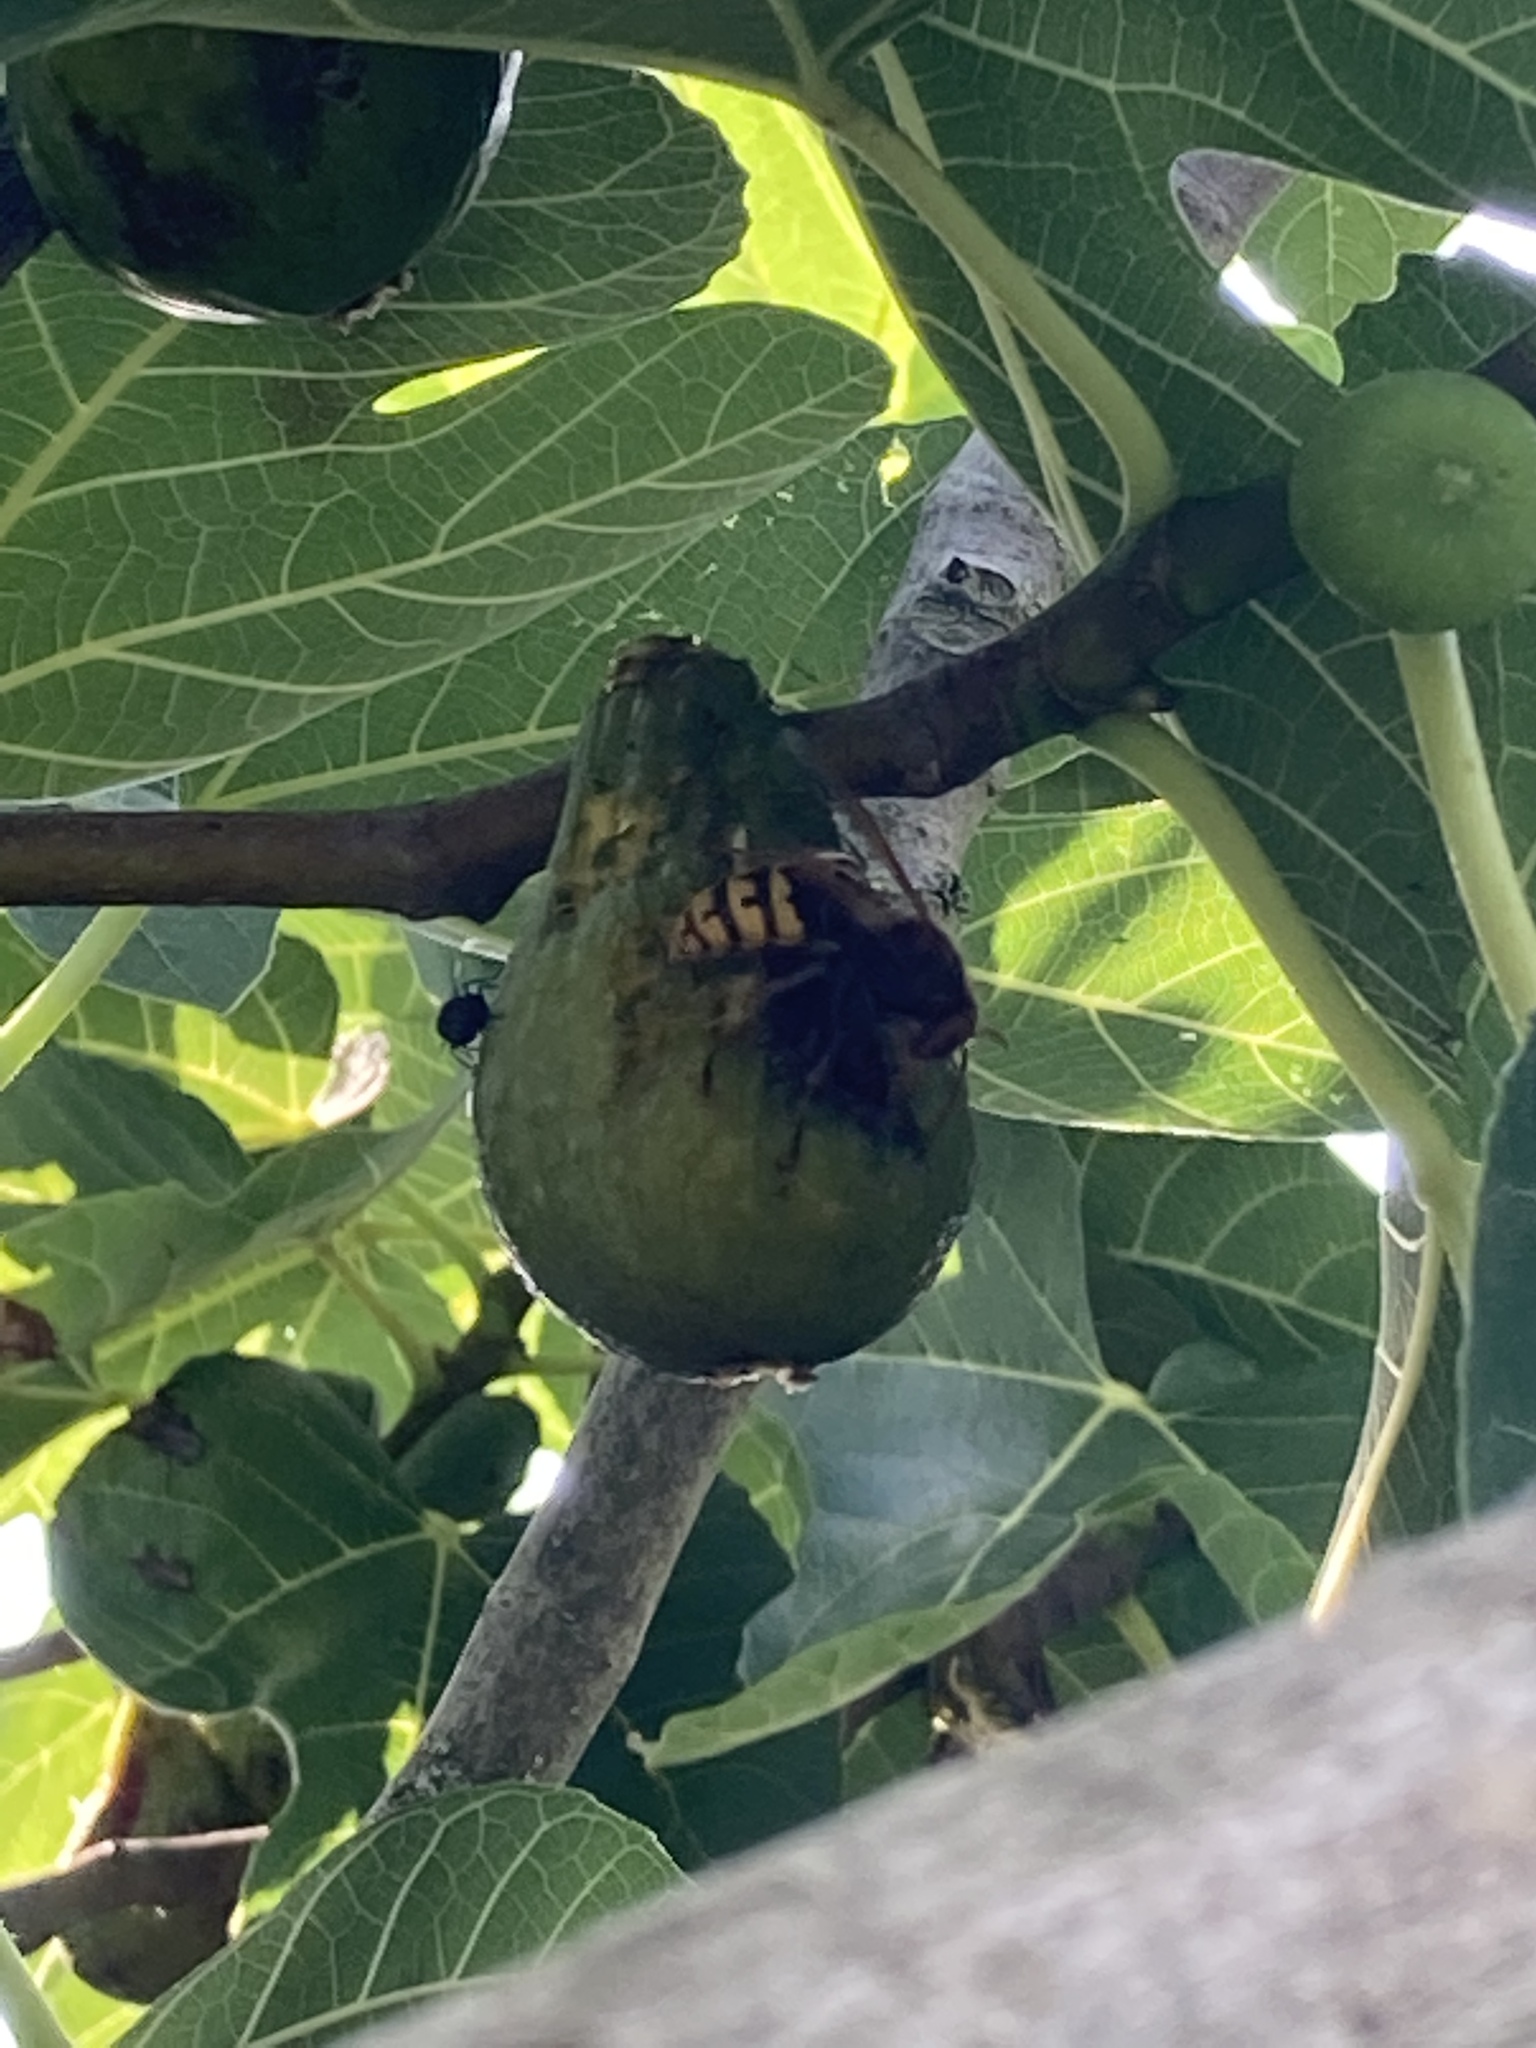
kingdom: Animalia
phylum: Arthropoda
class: Insecta
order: Hymenoptera
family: Vespidae
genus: Vespa
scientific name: Vespa crabro
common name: Hornet
